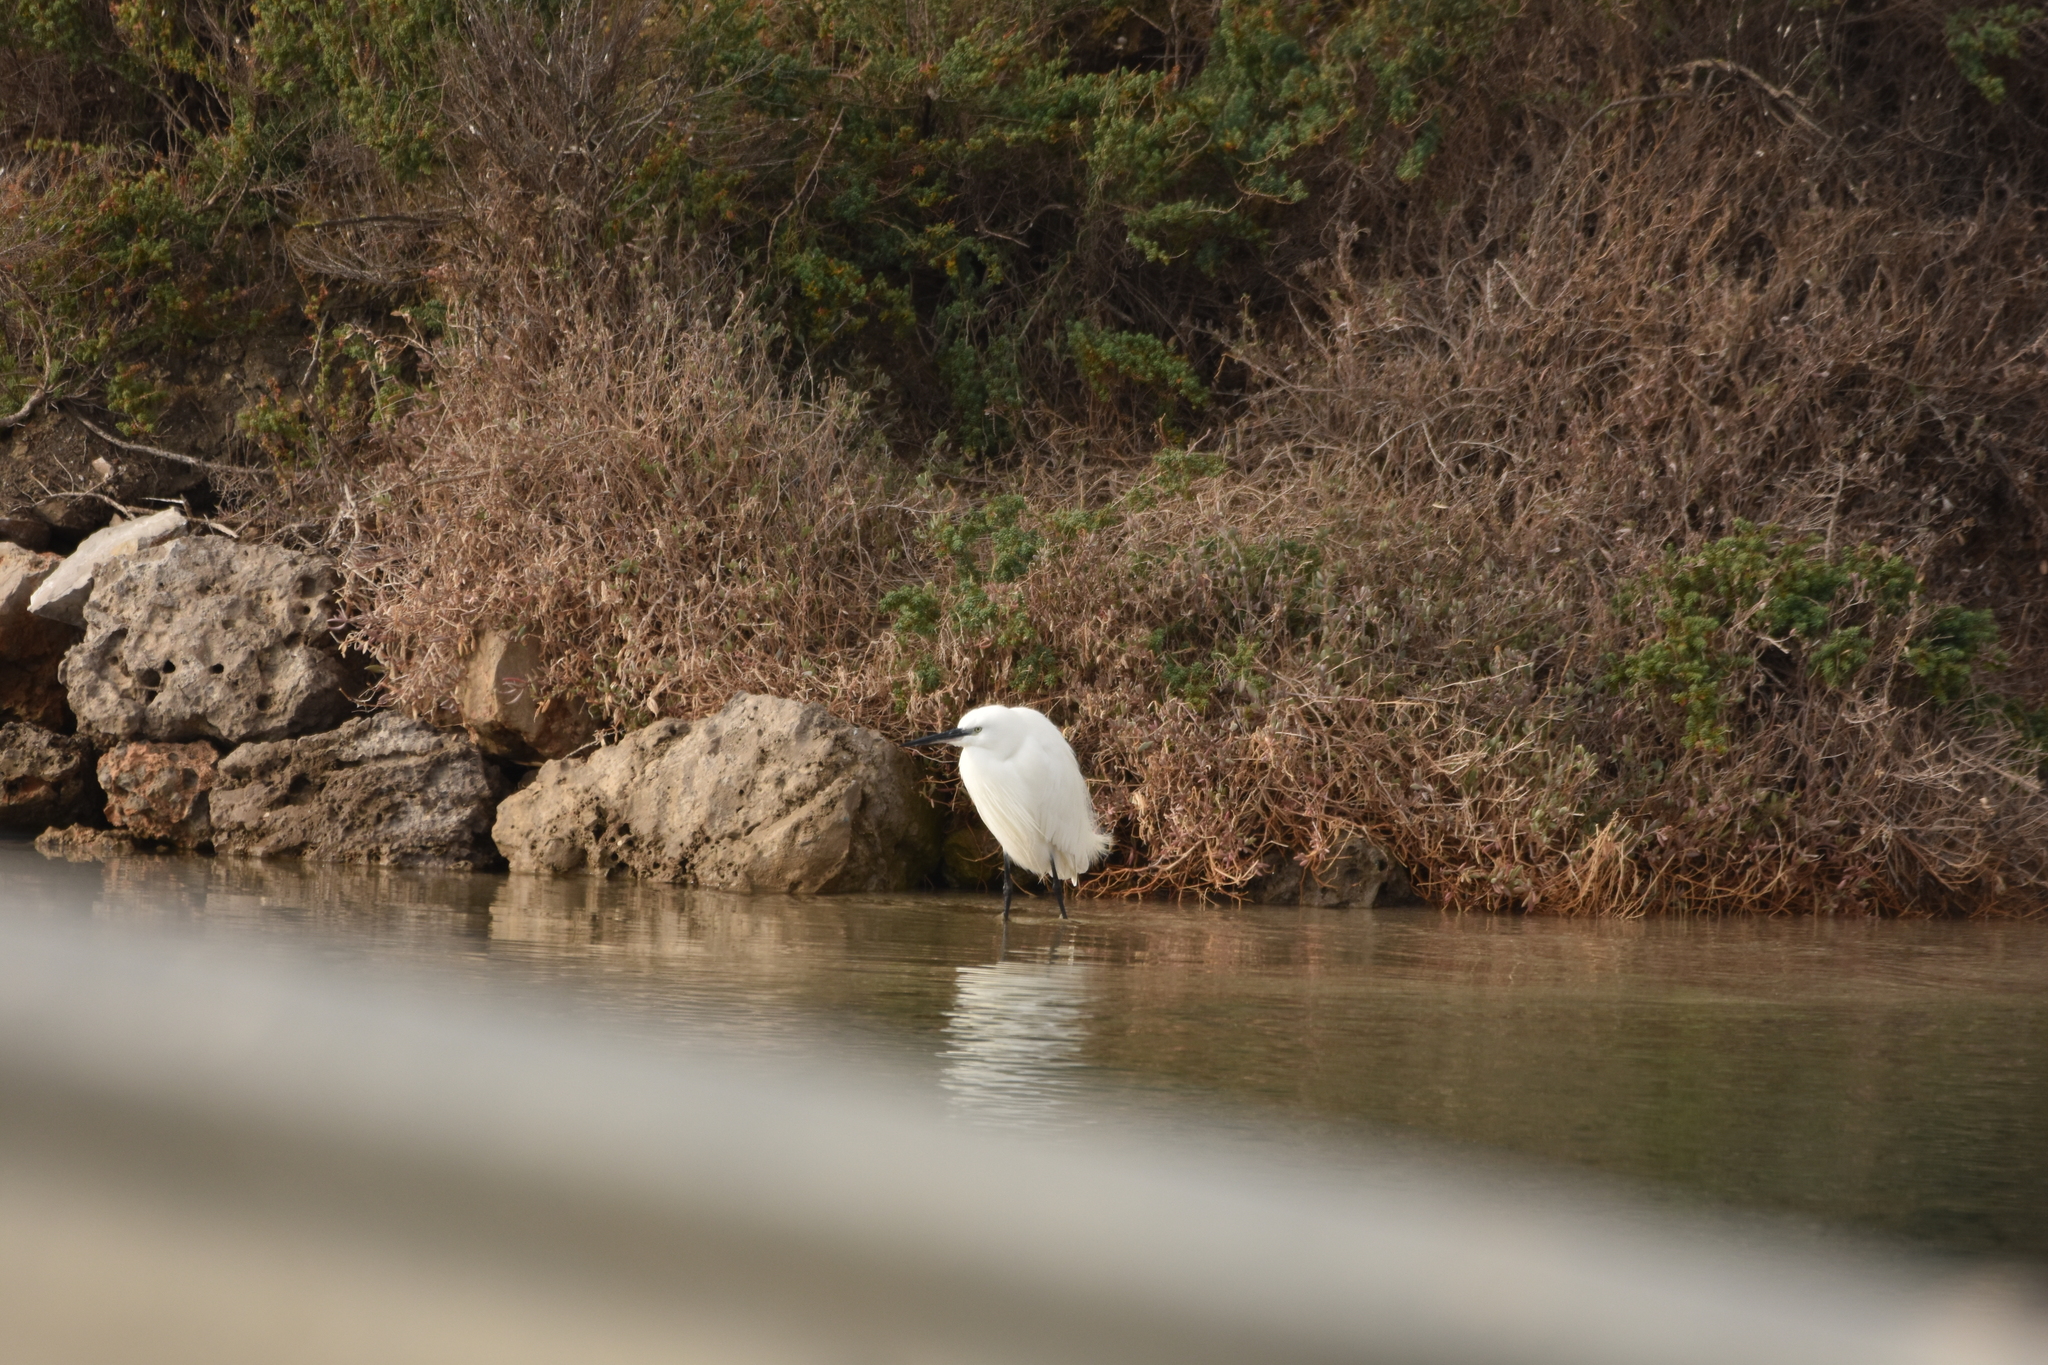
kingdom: Animalia
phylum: Chordata
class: Aves
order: Pelecaniformes
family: Ardeidae
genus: Egretta
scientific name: Egretta garzetta
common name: Little egret
